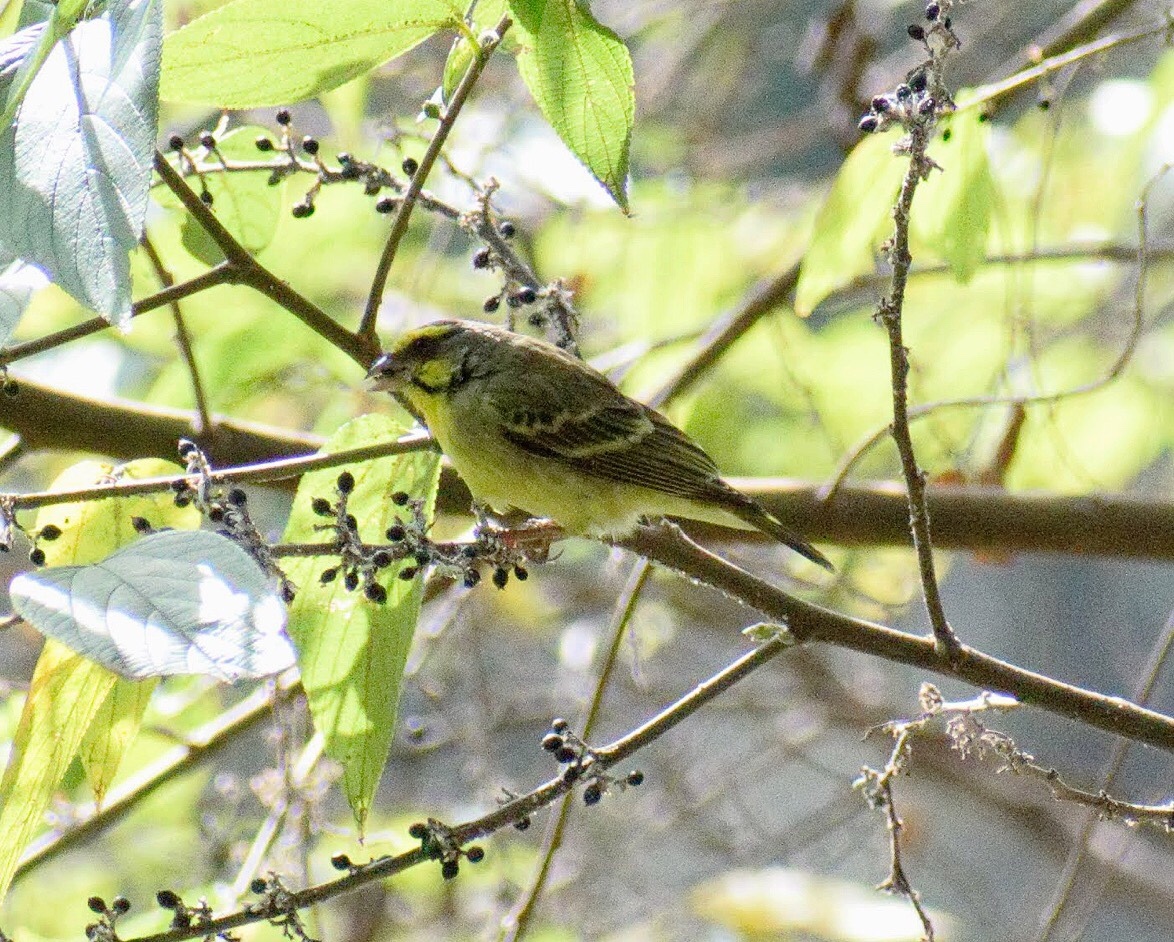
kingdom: Animalia
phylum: Chordata
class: Aves
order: Passeriformes
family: Fringillidae
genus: Crithagra
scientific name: Crithagra mozambica
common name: Yellow-fronted canary
